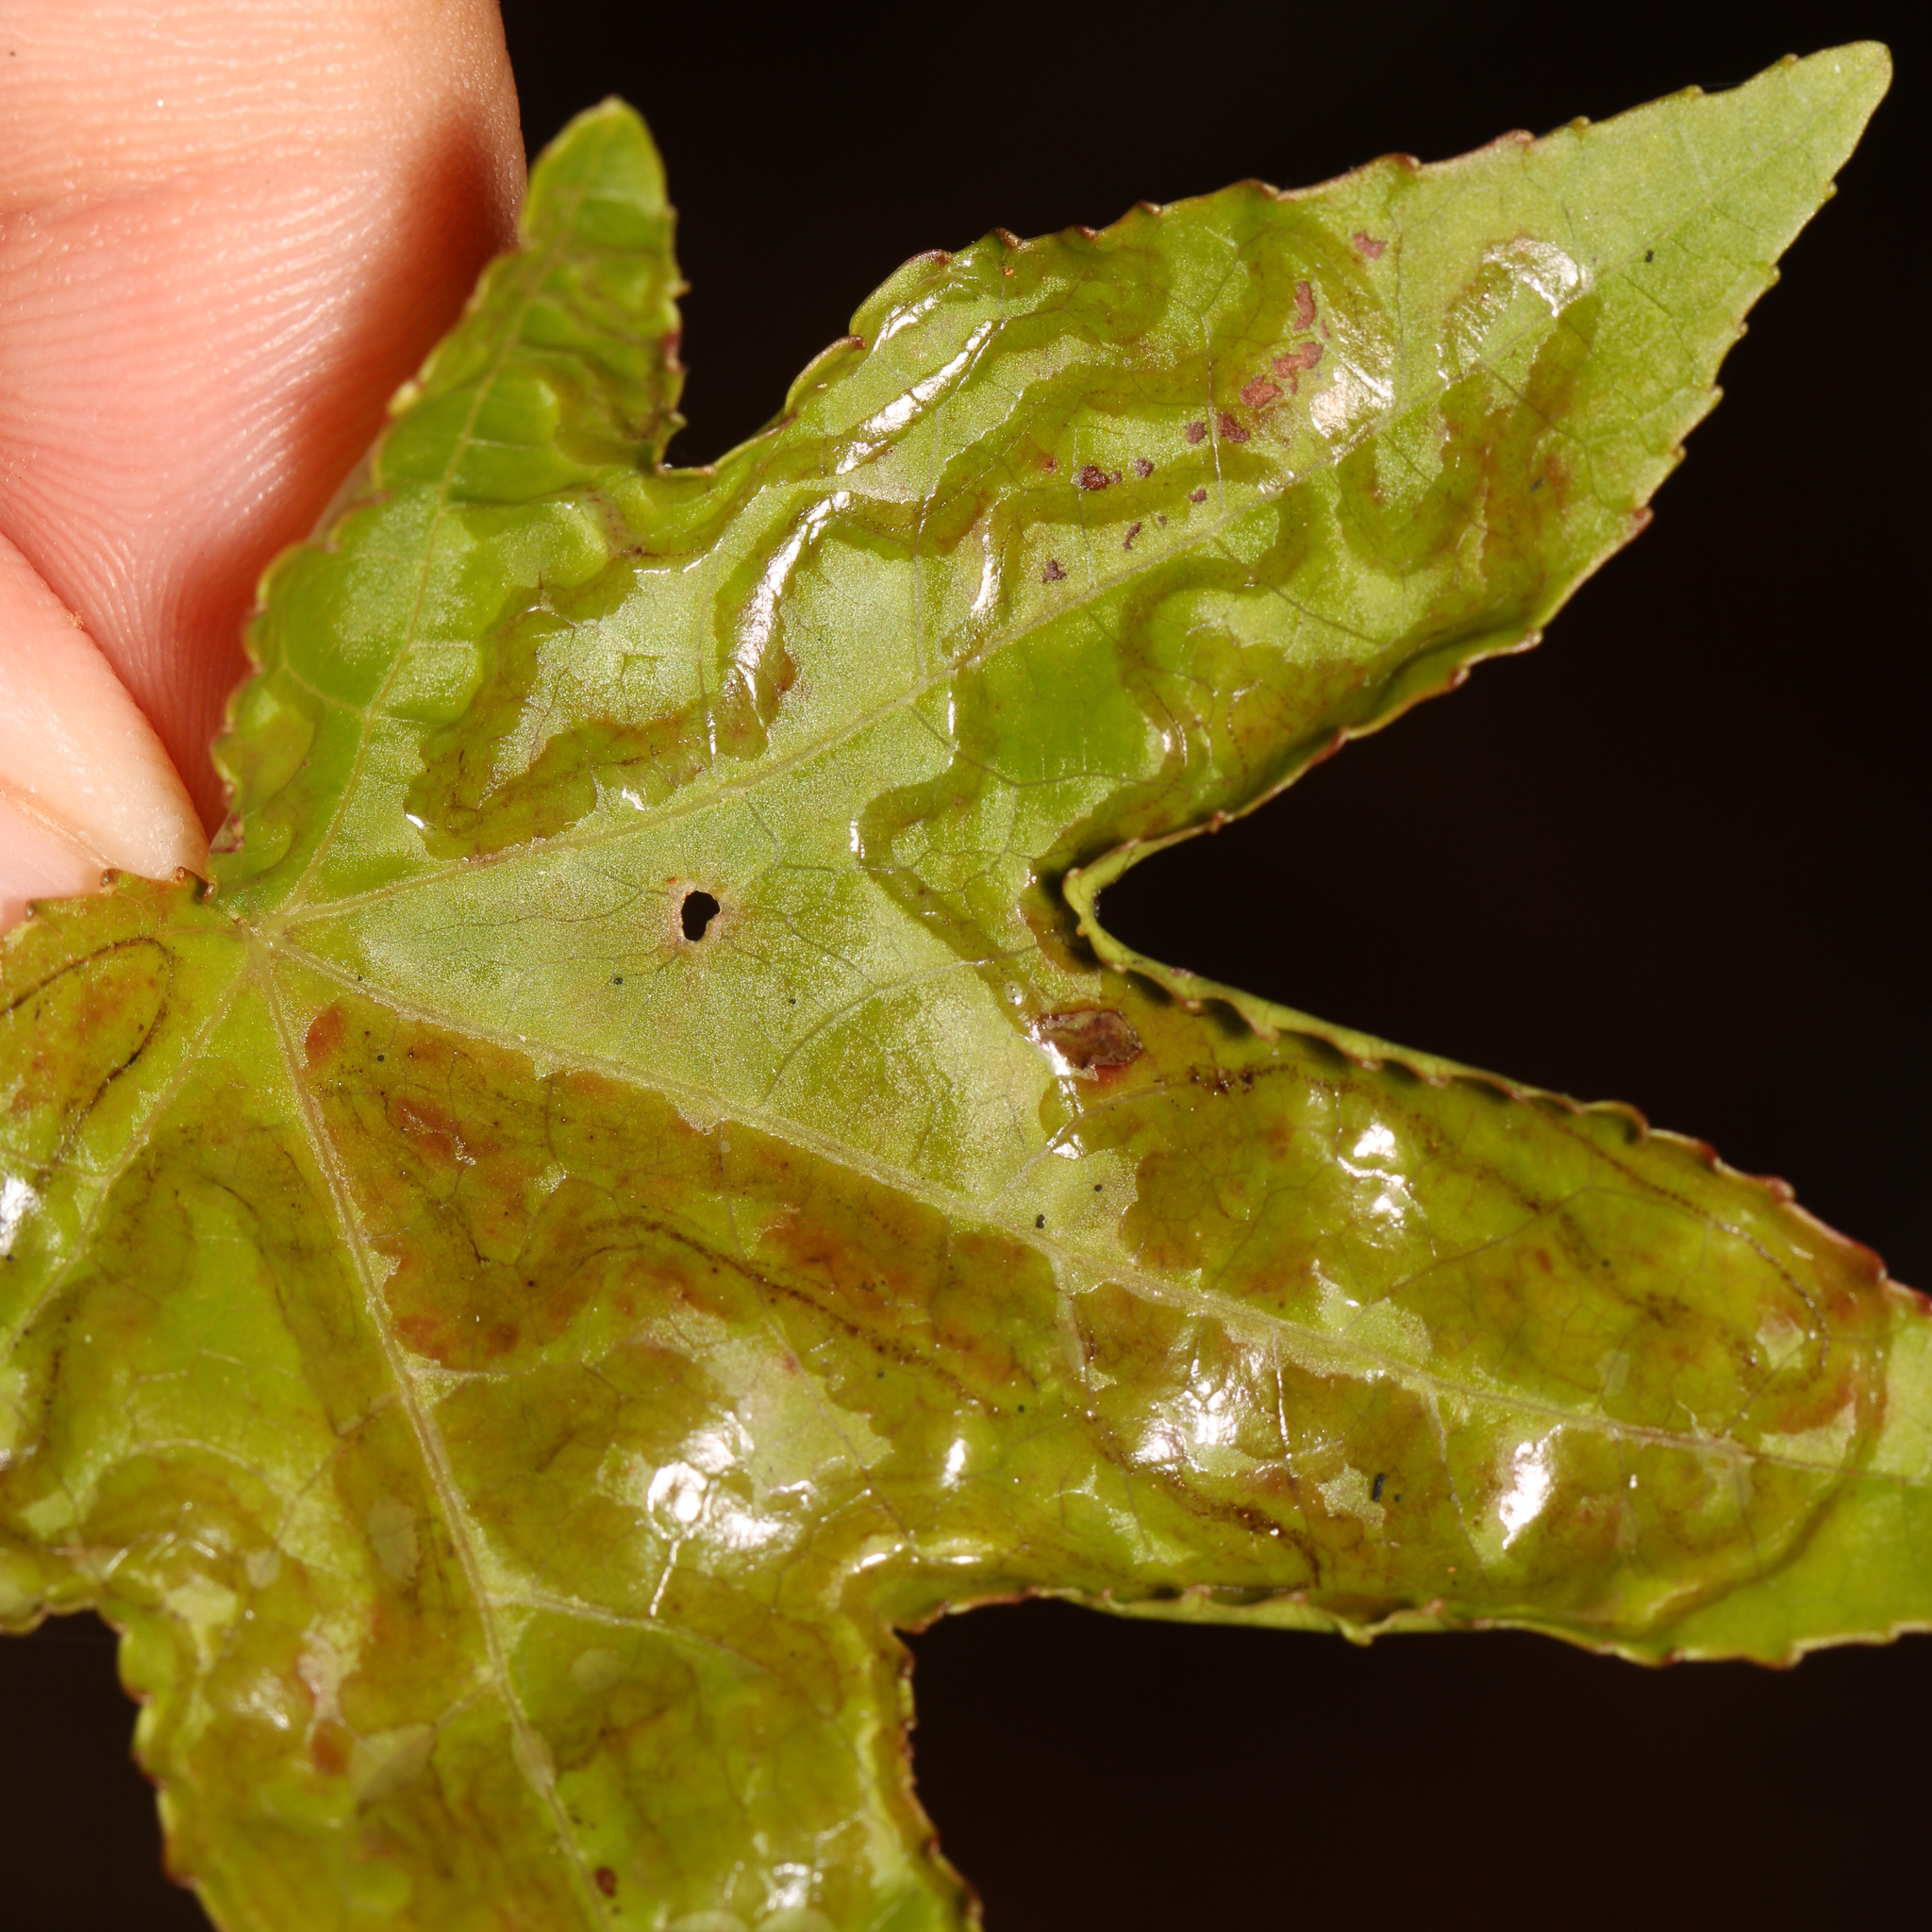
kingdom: Animalia
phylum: Arthropoda
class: Insecta
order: Lepidoptera
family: Gracillariidae
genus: Phyllocnistis
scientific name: Phyllocnistis liquidambarisella
